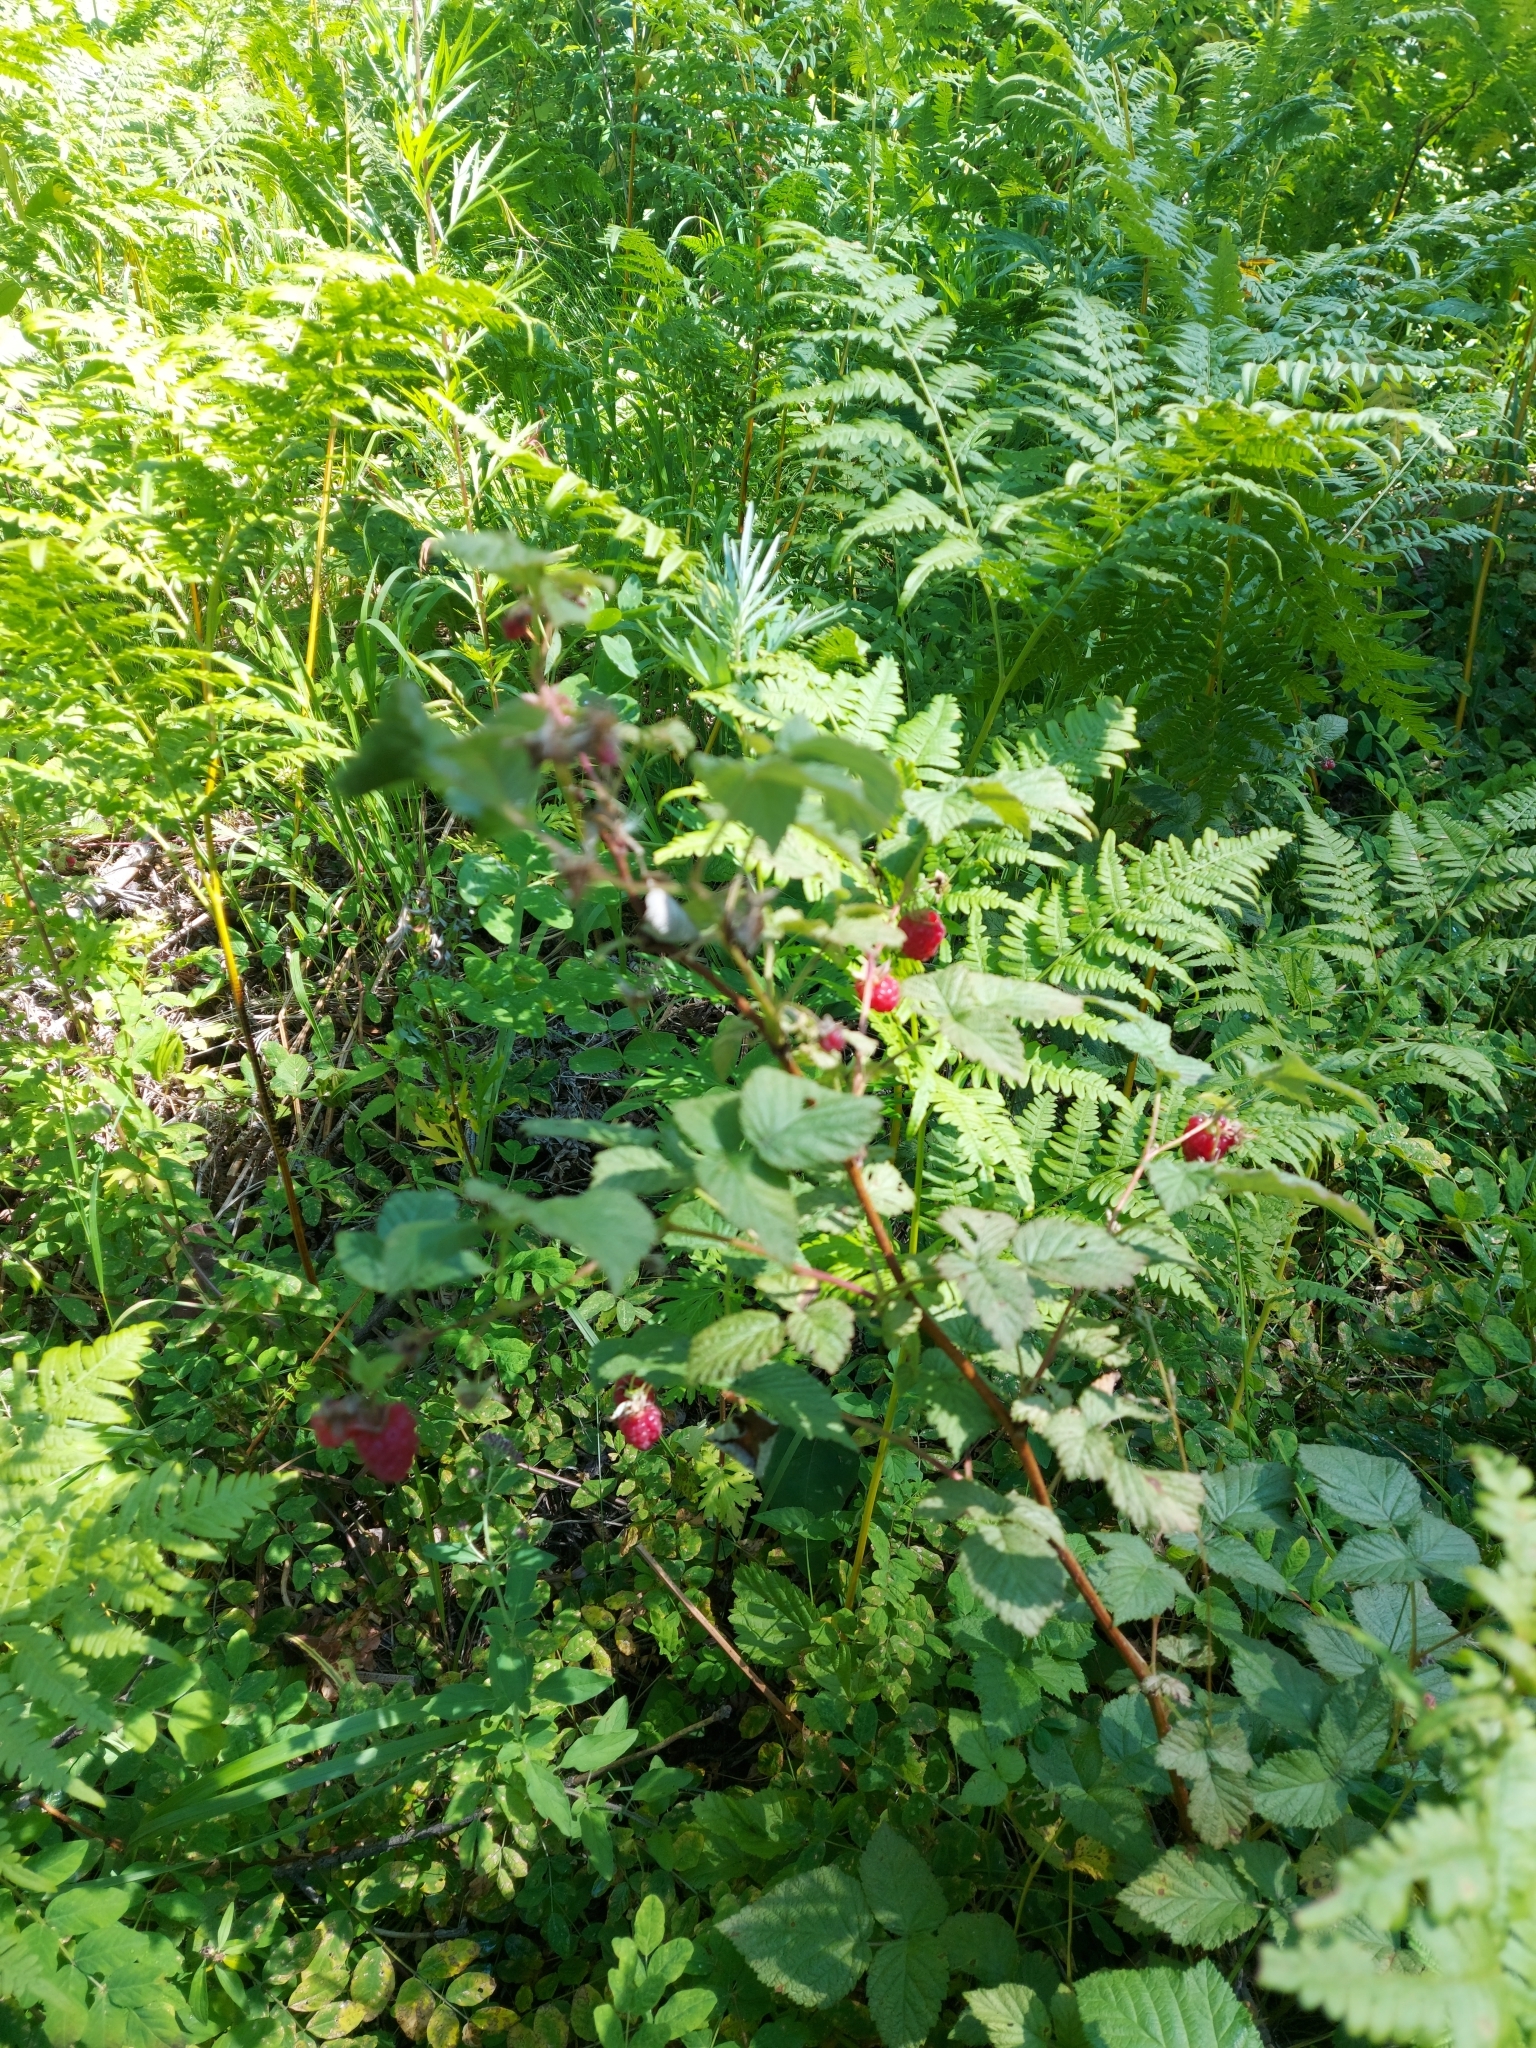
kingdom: Plantae
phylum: Tracheophyta
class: Magnoliopsida
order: Rosales
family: Rosaceae
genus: Rubus
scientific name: Rubus idaeus
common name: Raspberry
